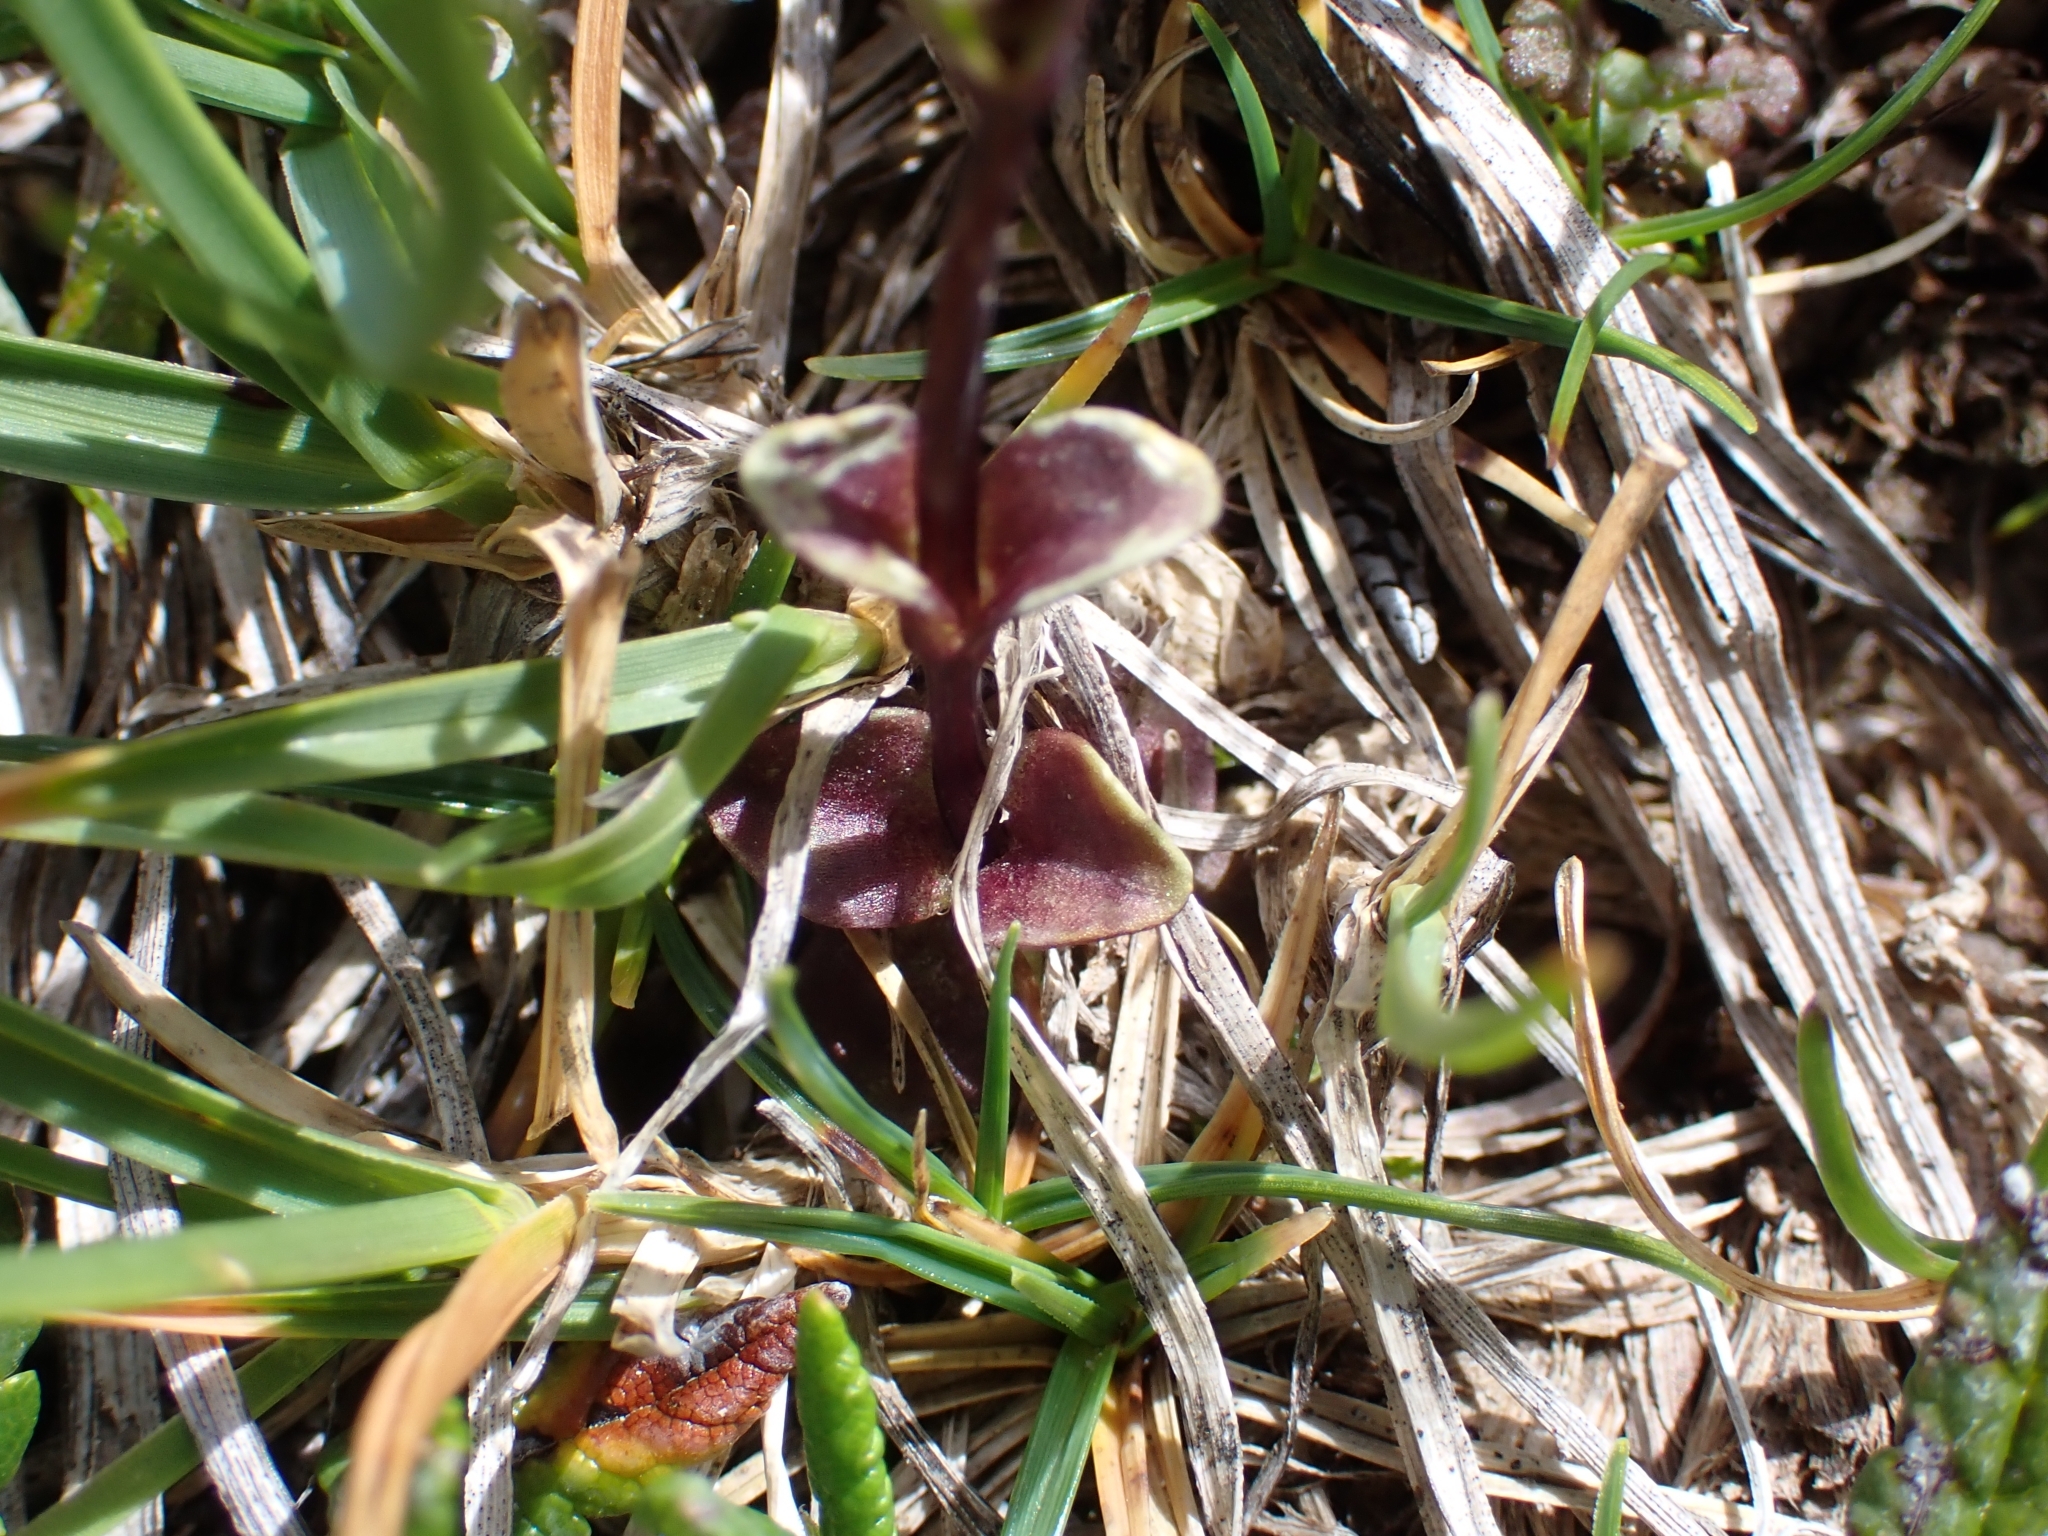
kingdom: Plantae
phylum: Tracheophyta
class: Magnoliopsida
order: Gentianales
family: Gentianaceae
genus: Gentiana
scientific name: Gentiana utriculosa
